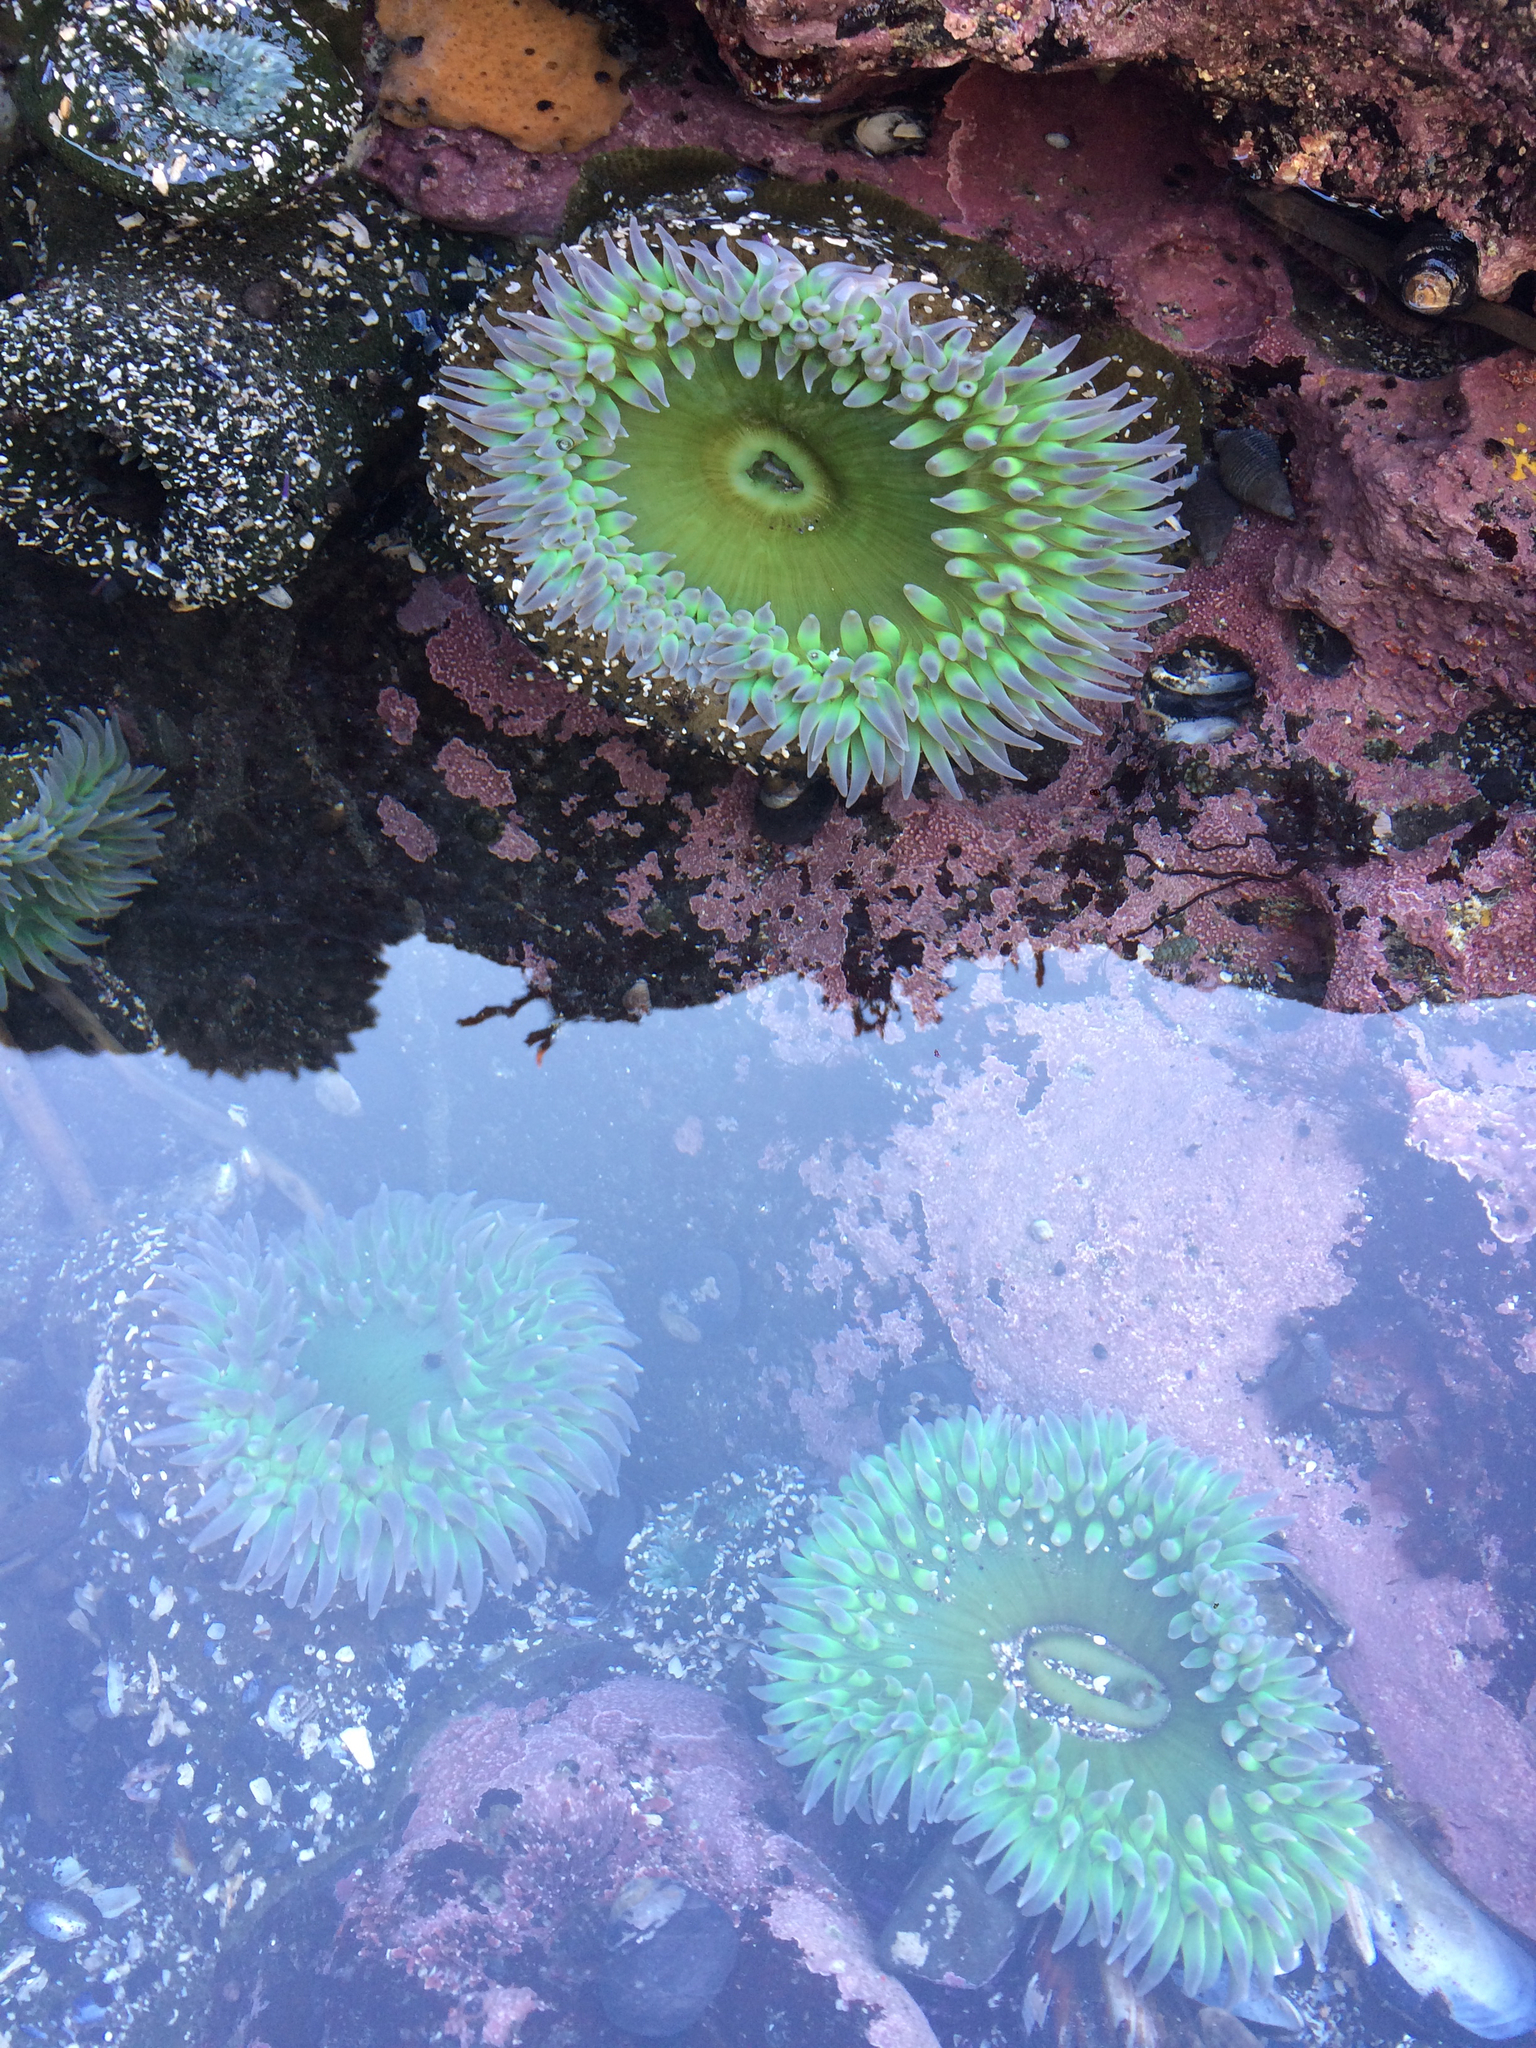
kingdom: Animalia
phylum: Cnidaria
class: Anthozoa
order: Actiniaria
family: Actiniidae
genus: Anthopleura
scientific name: Anthopleura xanthogrammica
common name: Giant green anemone
